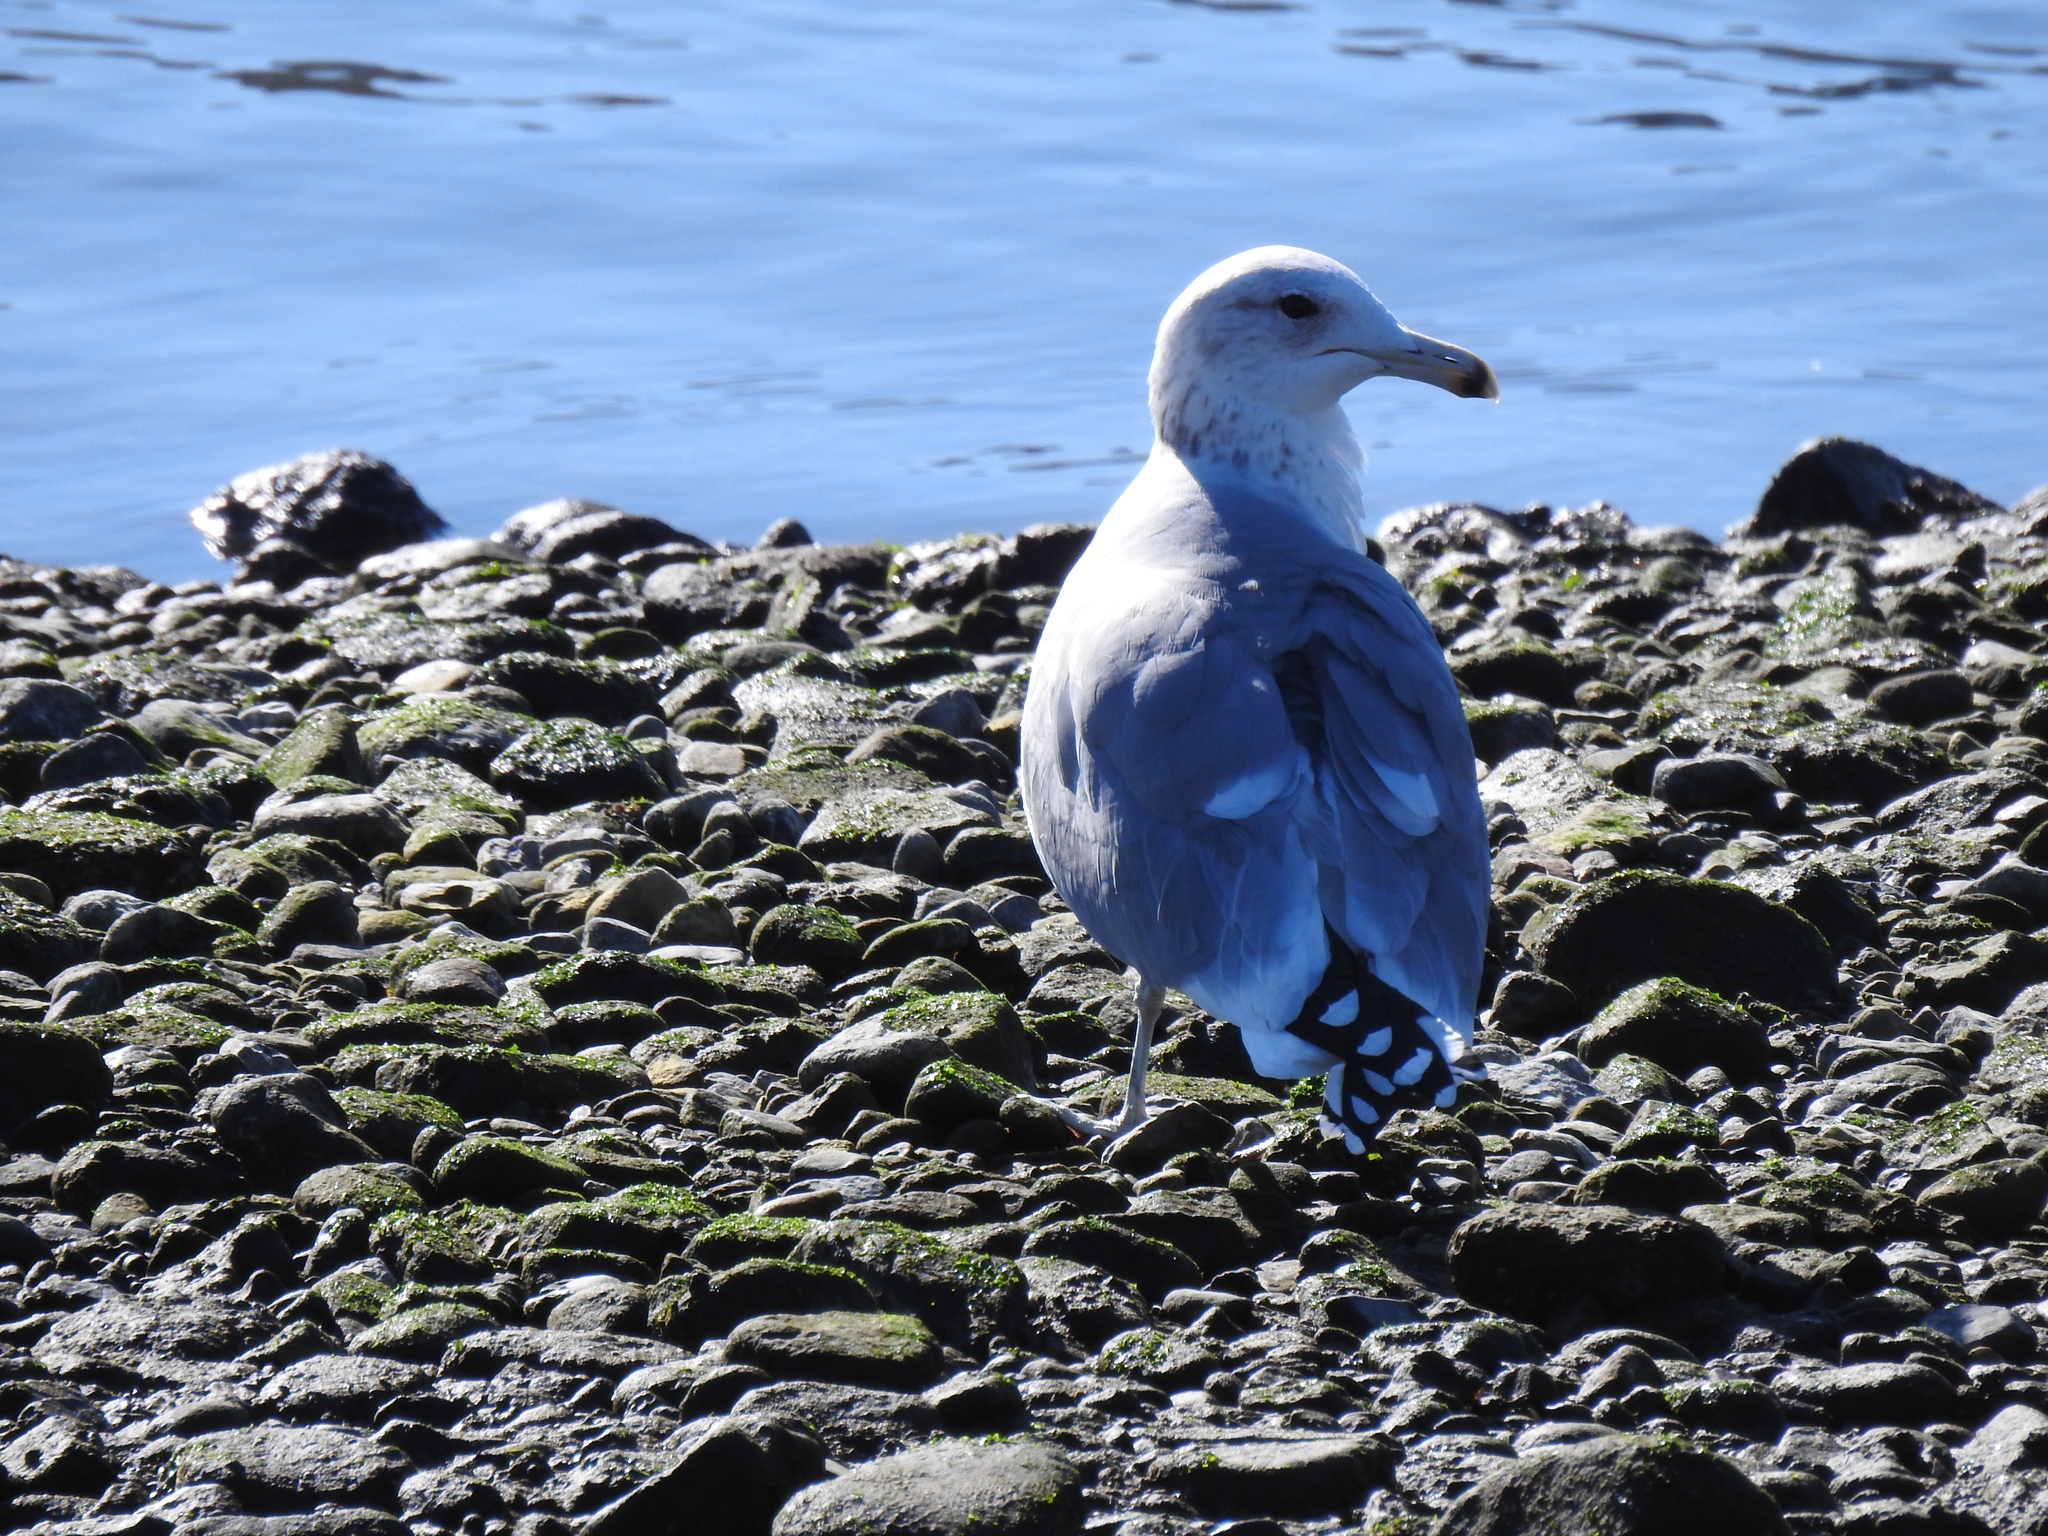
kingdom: Animalia
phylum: Chordata
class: Aves
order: Charadriiformes
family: Laridae
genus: Larus
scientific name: Larus californicus
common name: California gull
